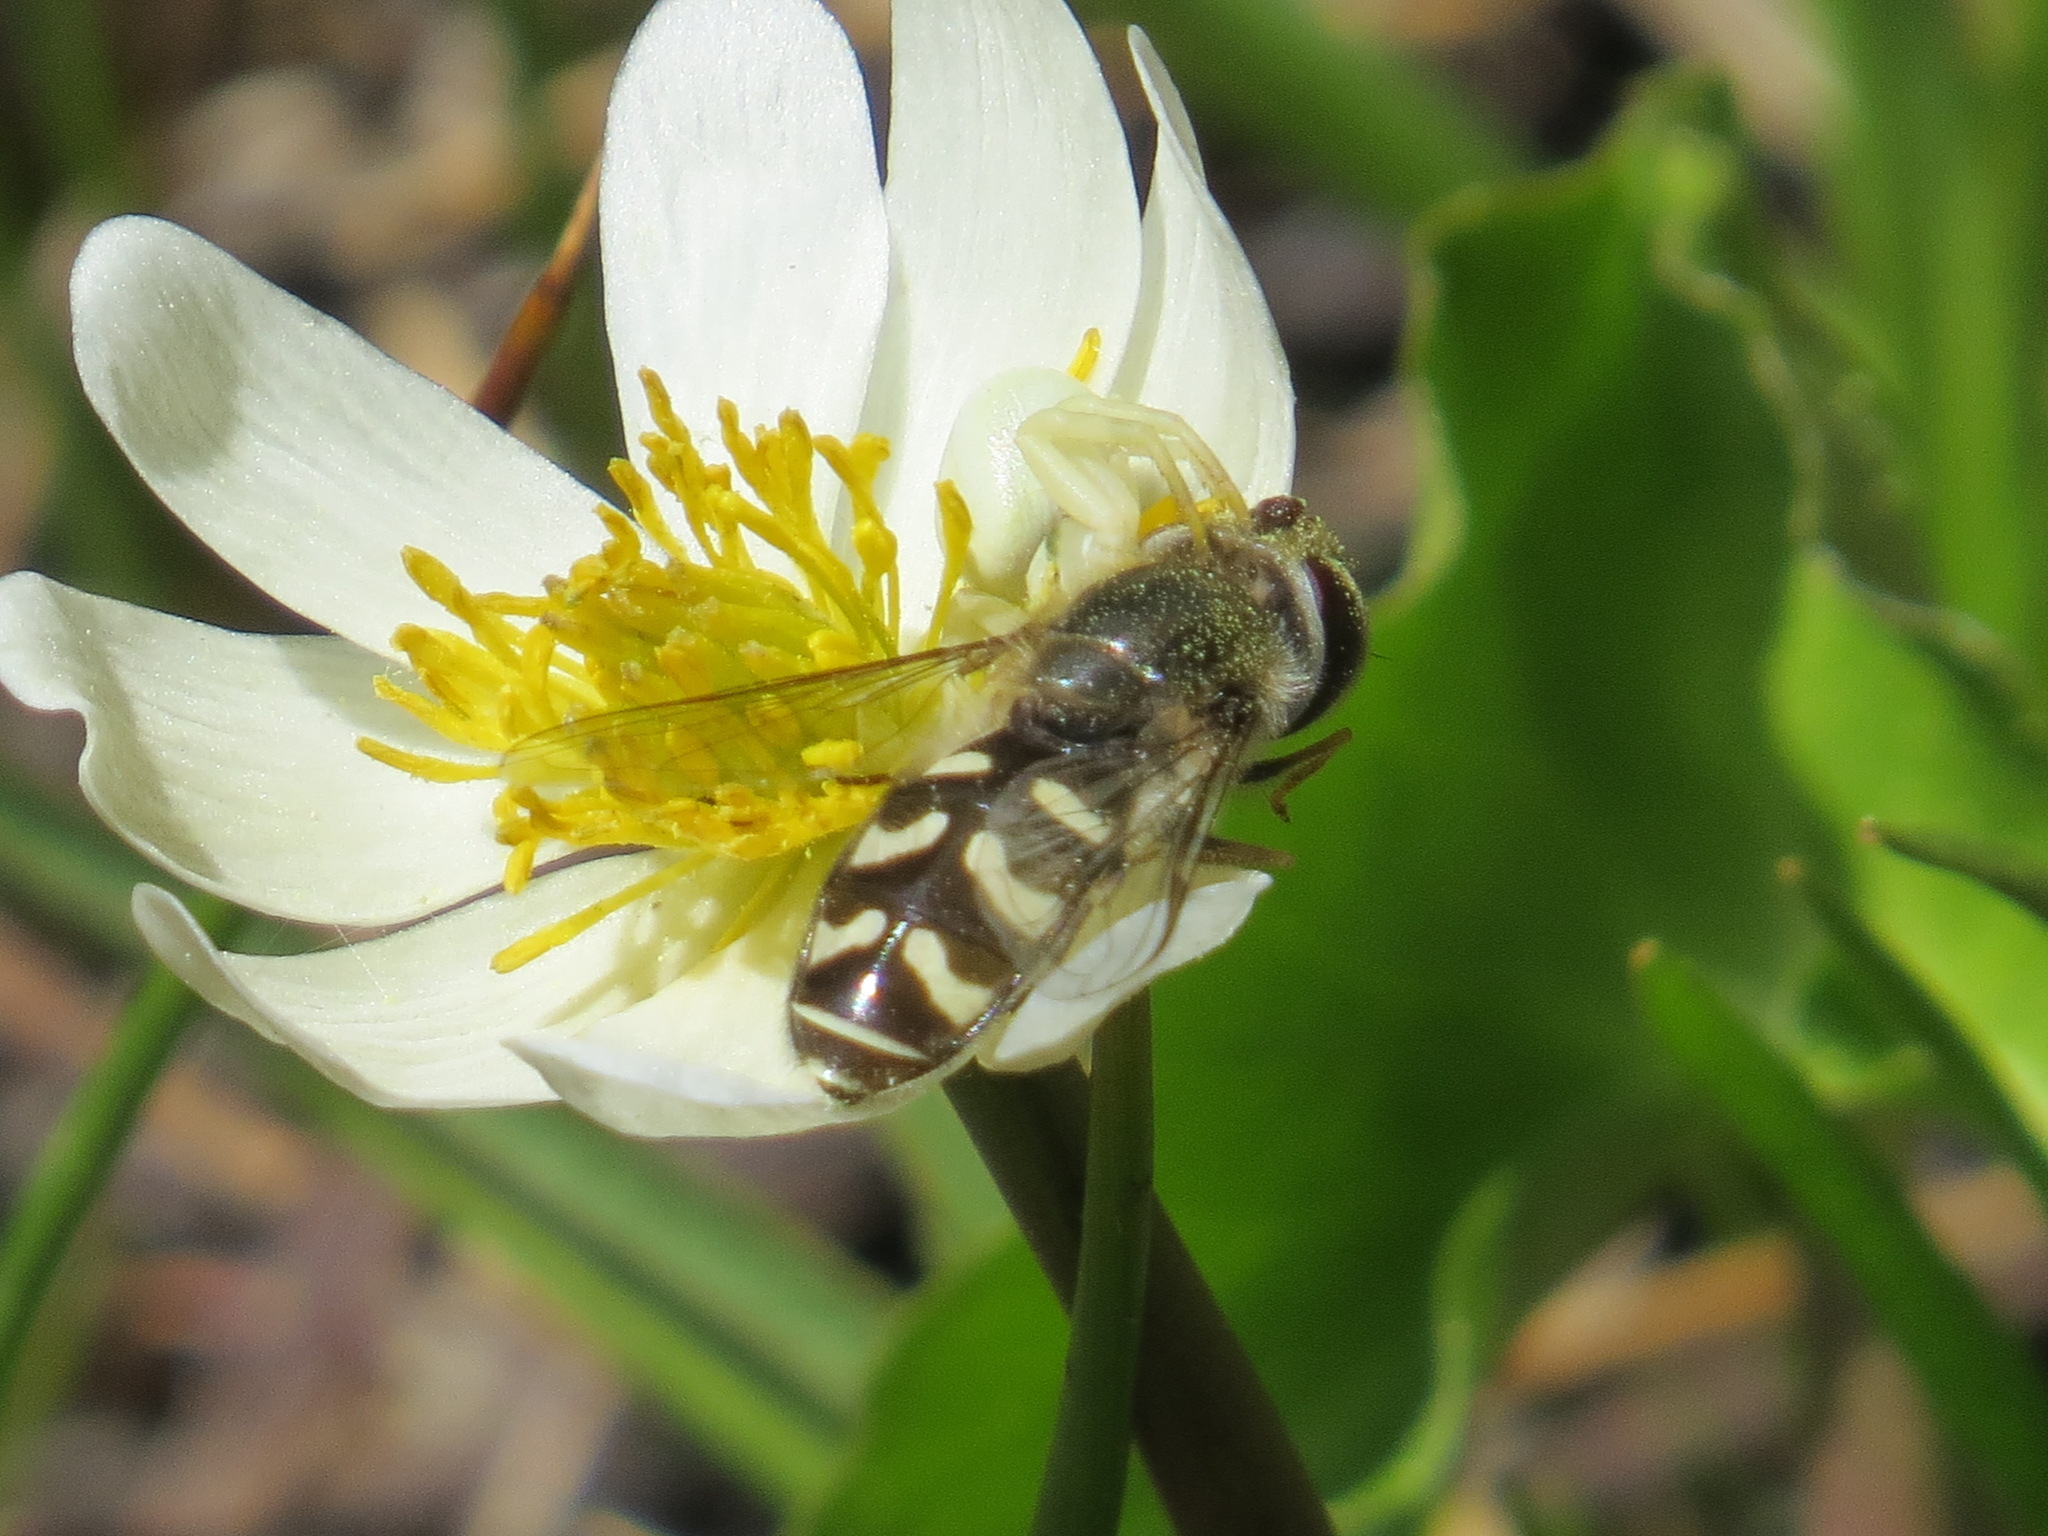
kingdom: Animalia
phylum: Arthropoda
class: Insecta
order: Diptera
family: Syrphidae
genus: Scaeva
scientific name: Scaeva affinis
